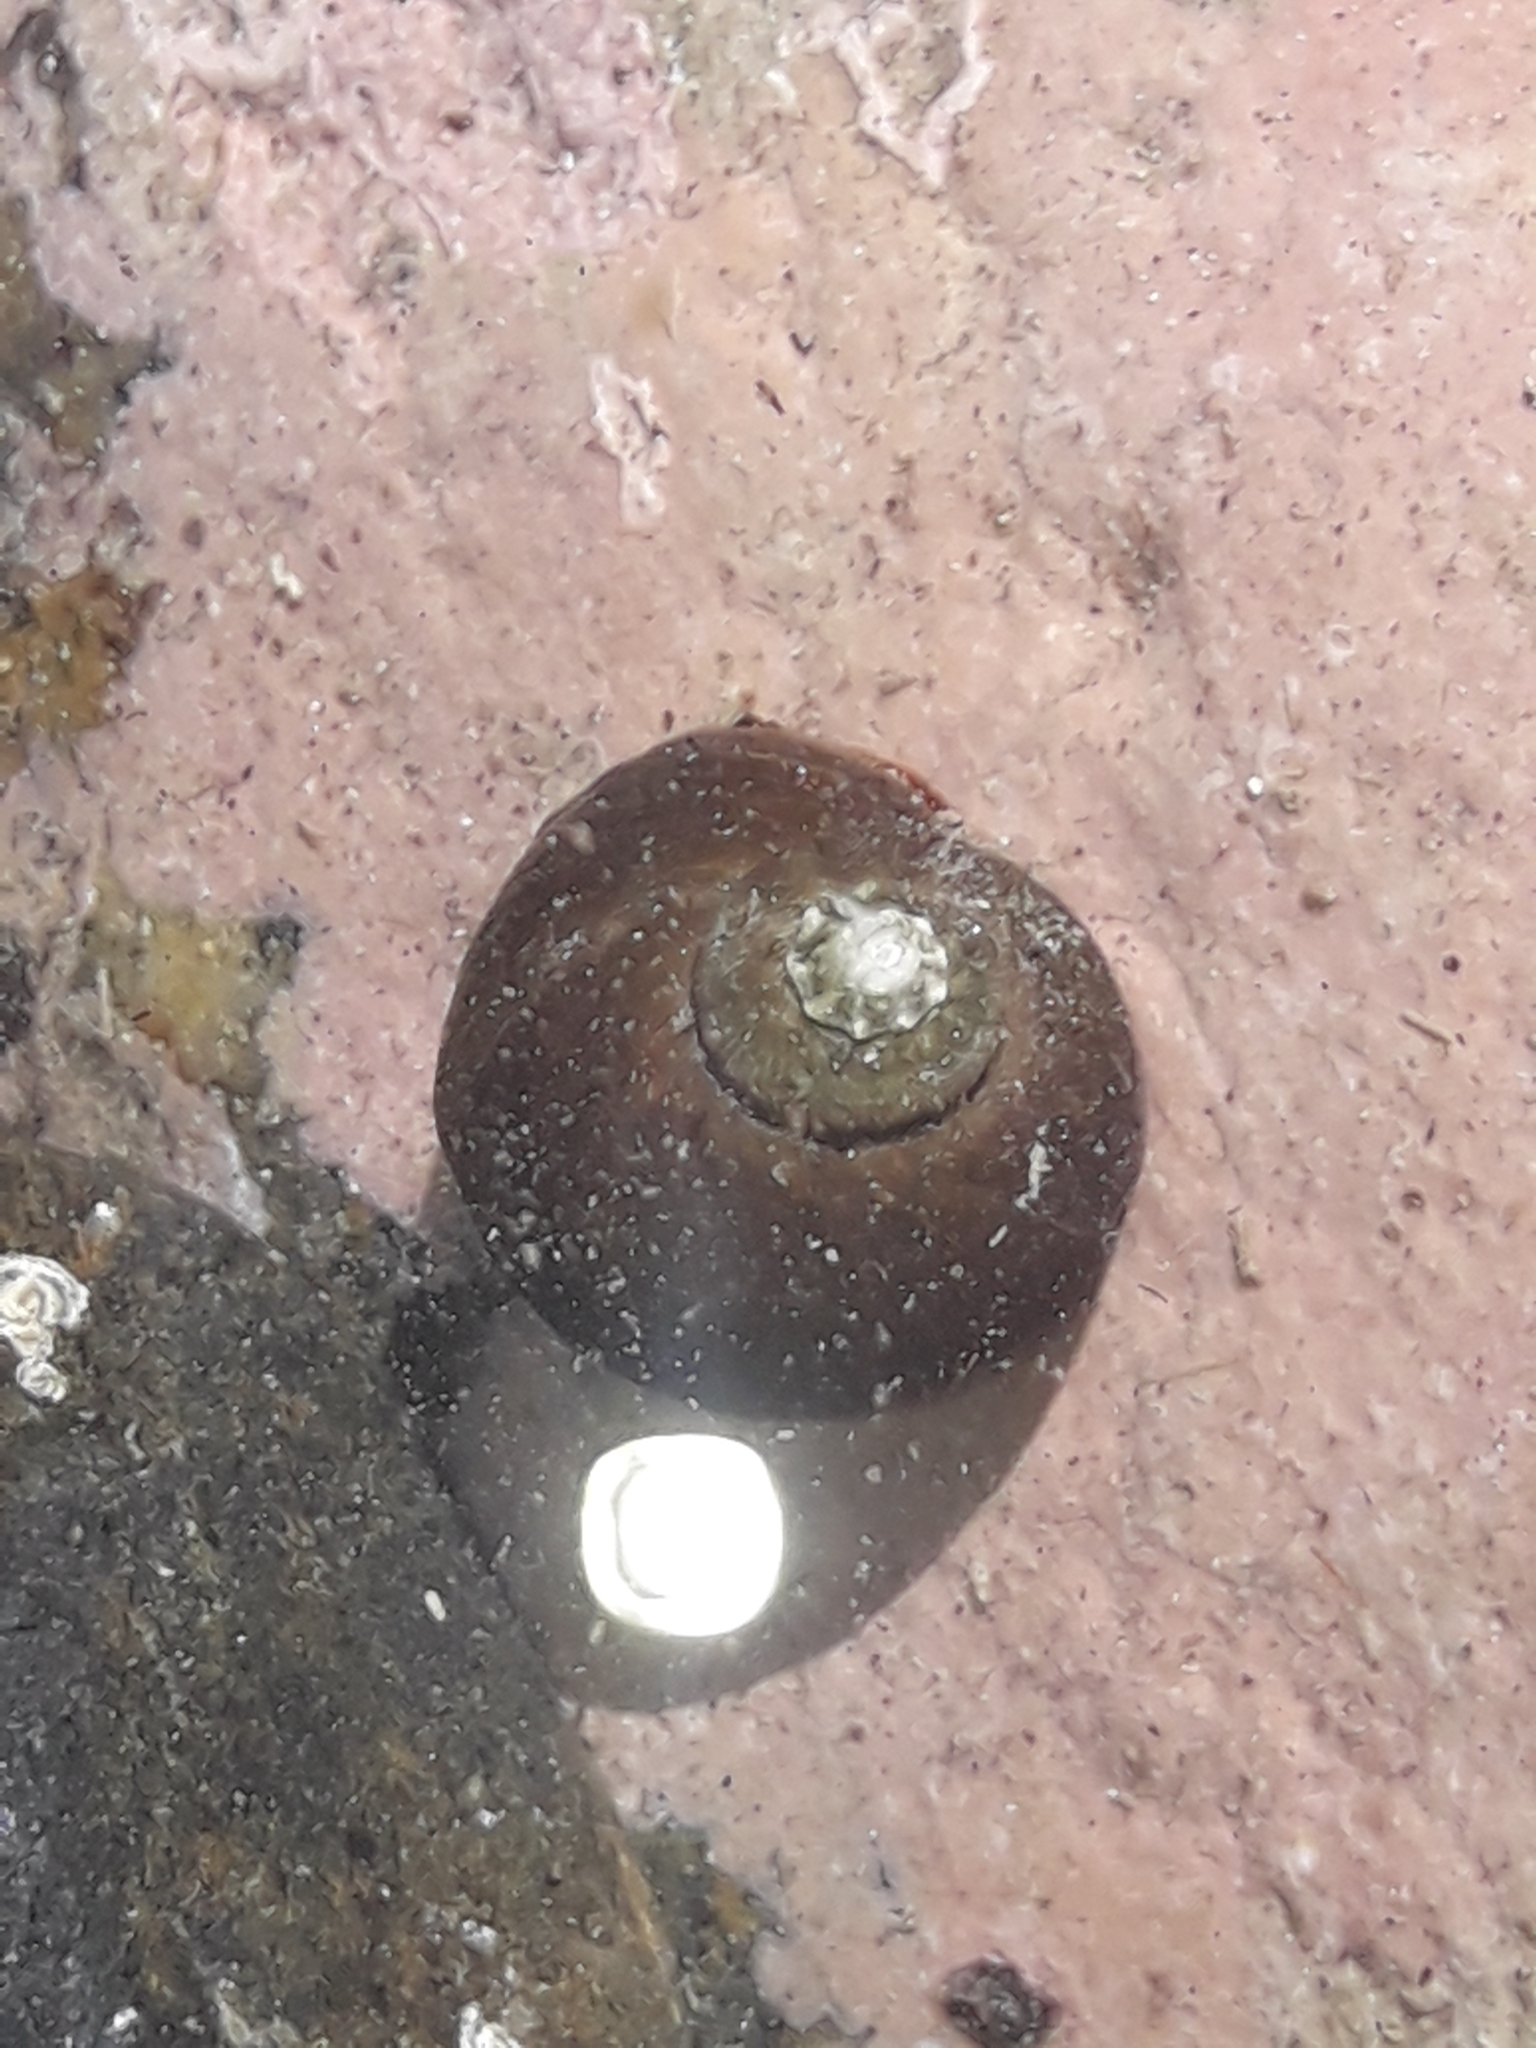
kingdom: Animalia
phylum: Mollusca
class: Gastropoda
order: Trochida
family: Turbinidae
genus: Lunella
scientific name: Lunella smaragda
